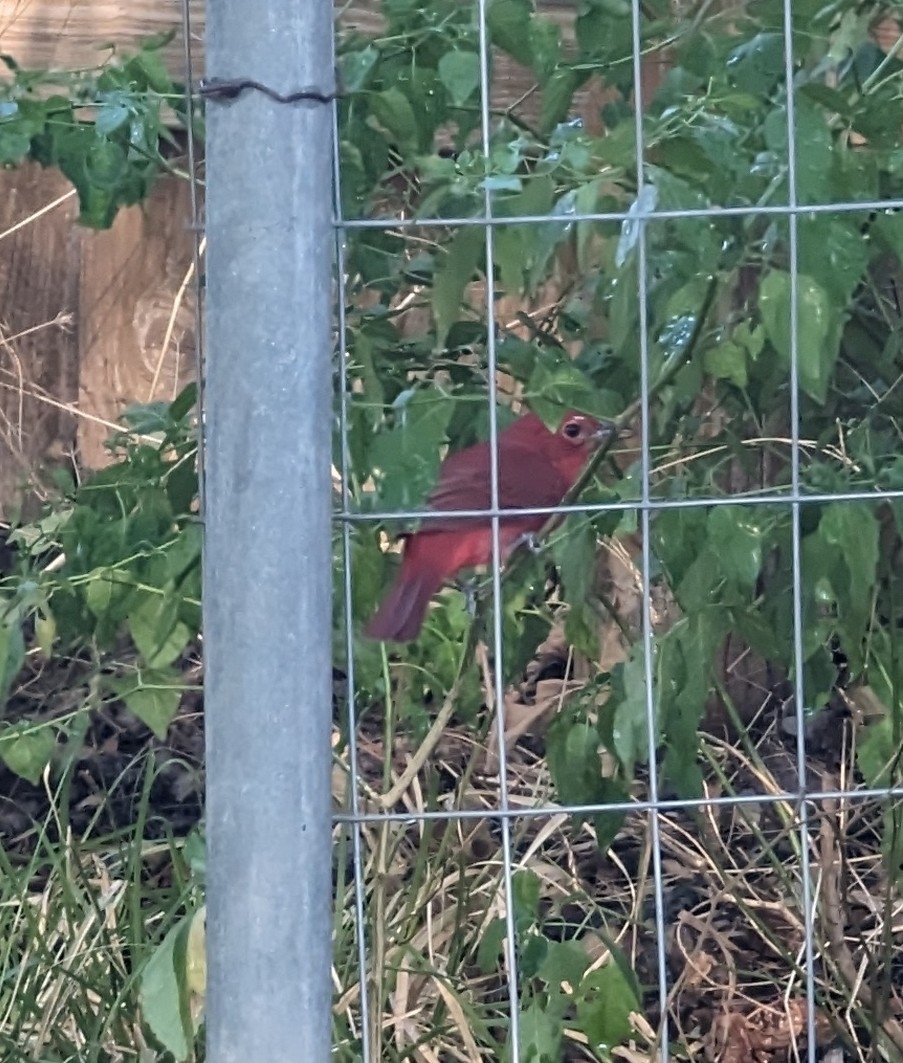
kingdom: Animalia
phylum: Chordata
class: Aves
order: Passeriformes
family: Cardinalidae
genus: Piranga
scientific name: Piranga rubra
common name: Summer tanager
